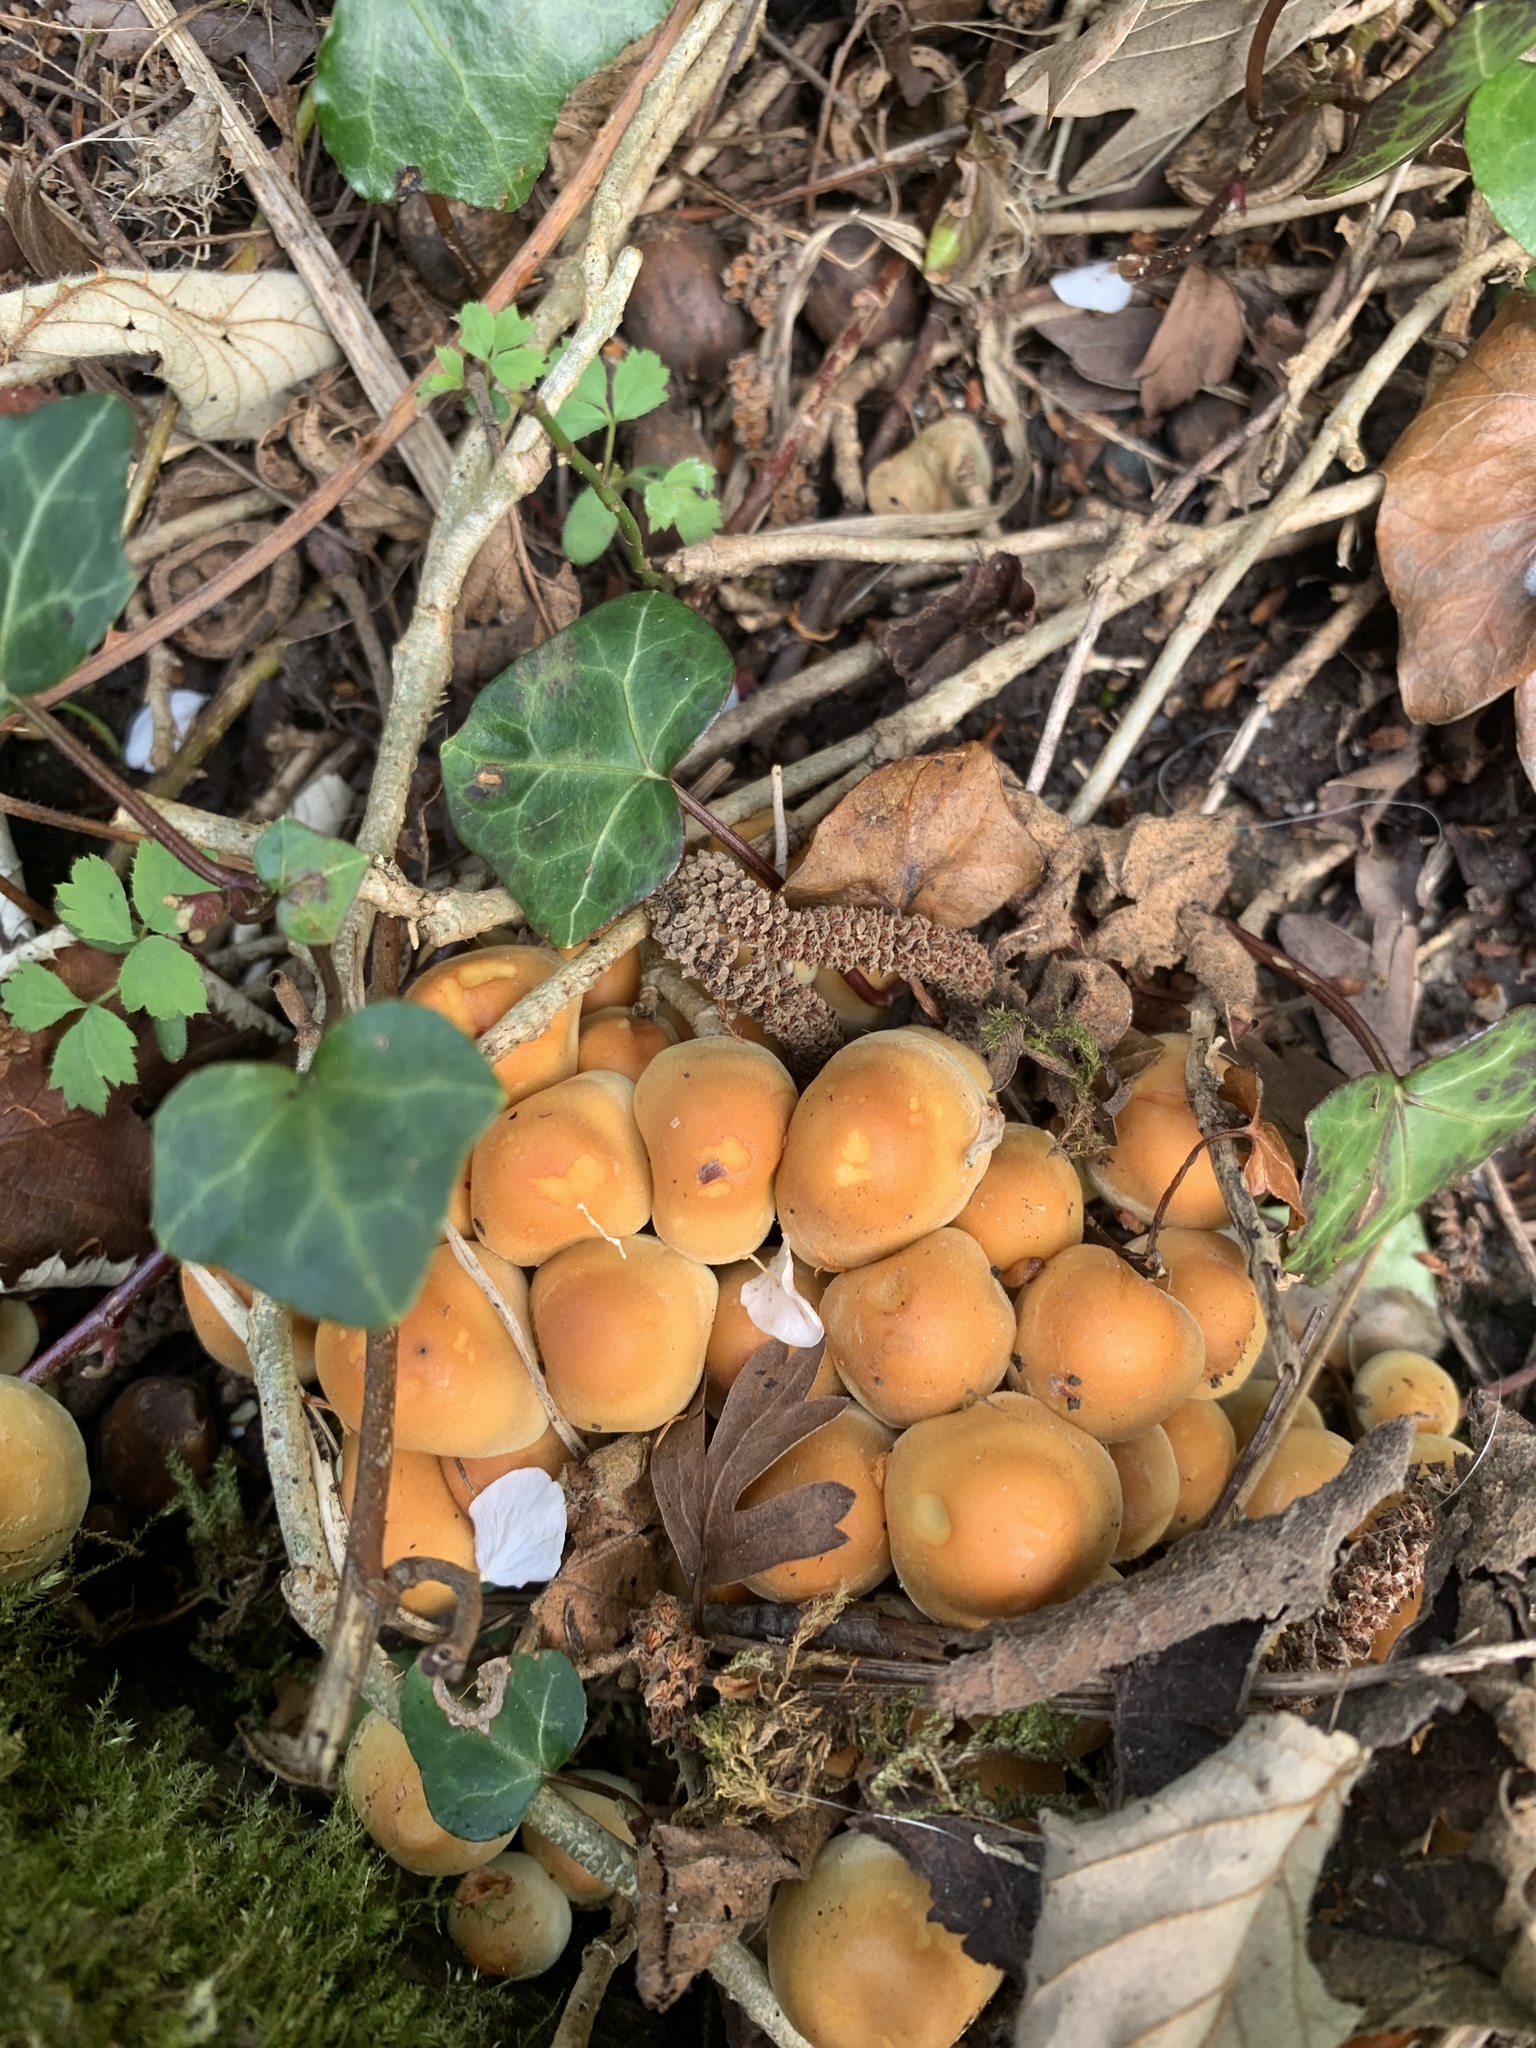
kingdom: Fungi
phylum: Basidiomycota
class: Agaricomycetes
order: Agaricales
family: Strophariaceae
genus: Hypholoma
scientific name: Hypholoma fasciculare
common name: Sulphur tuft
